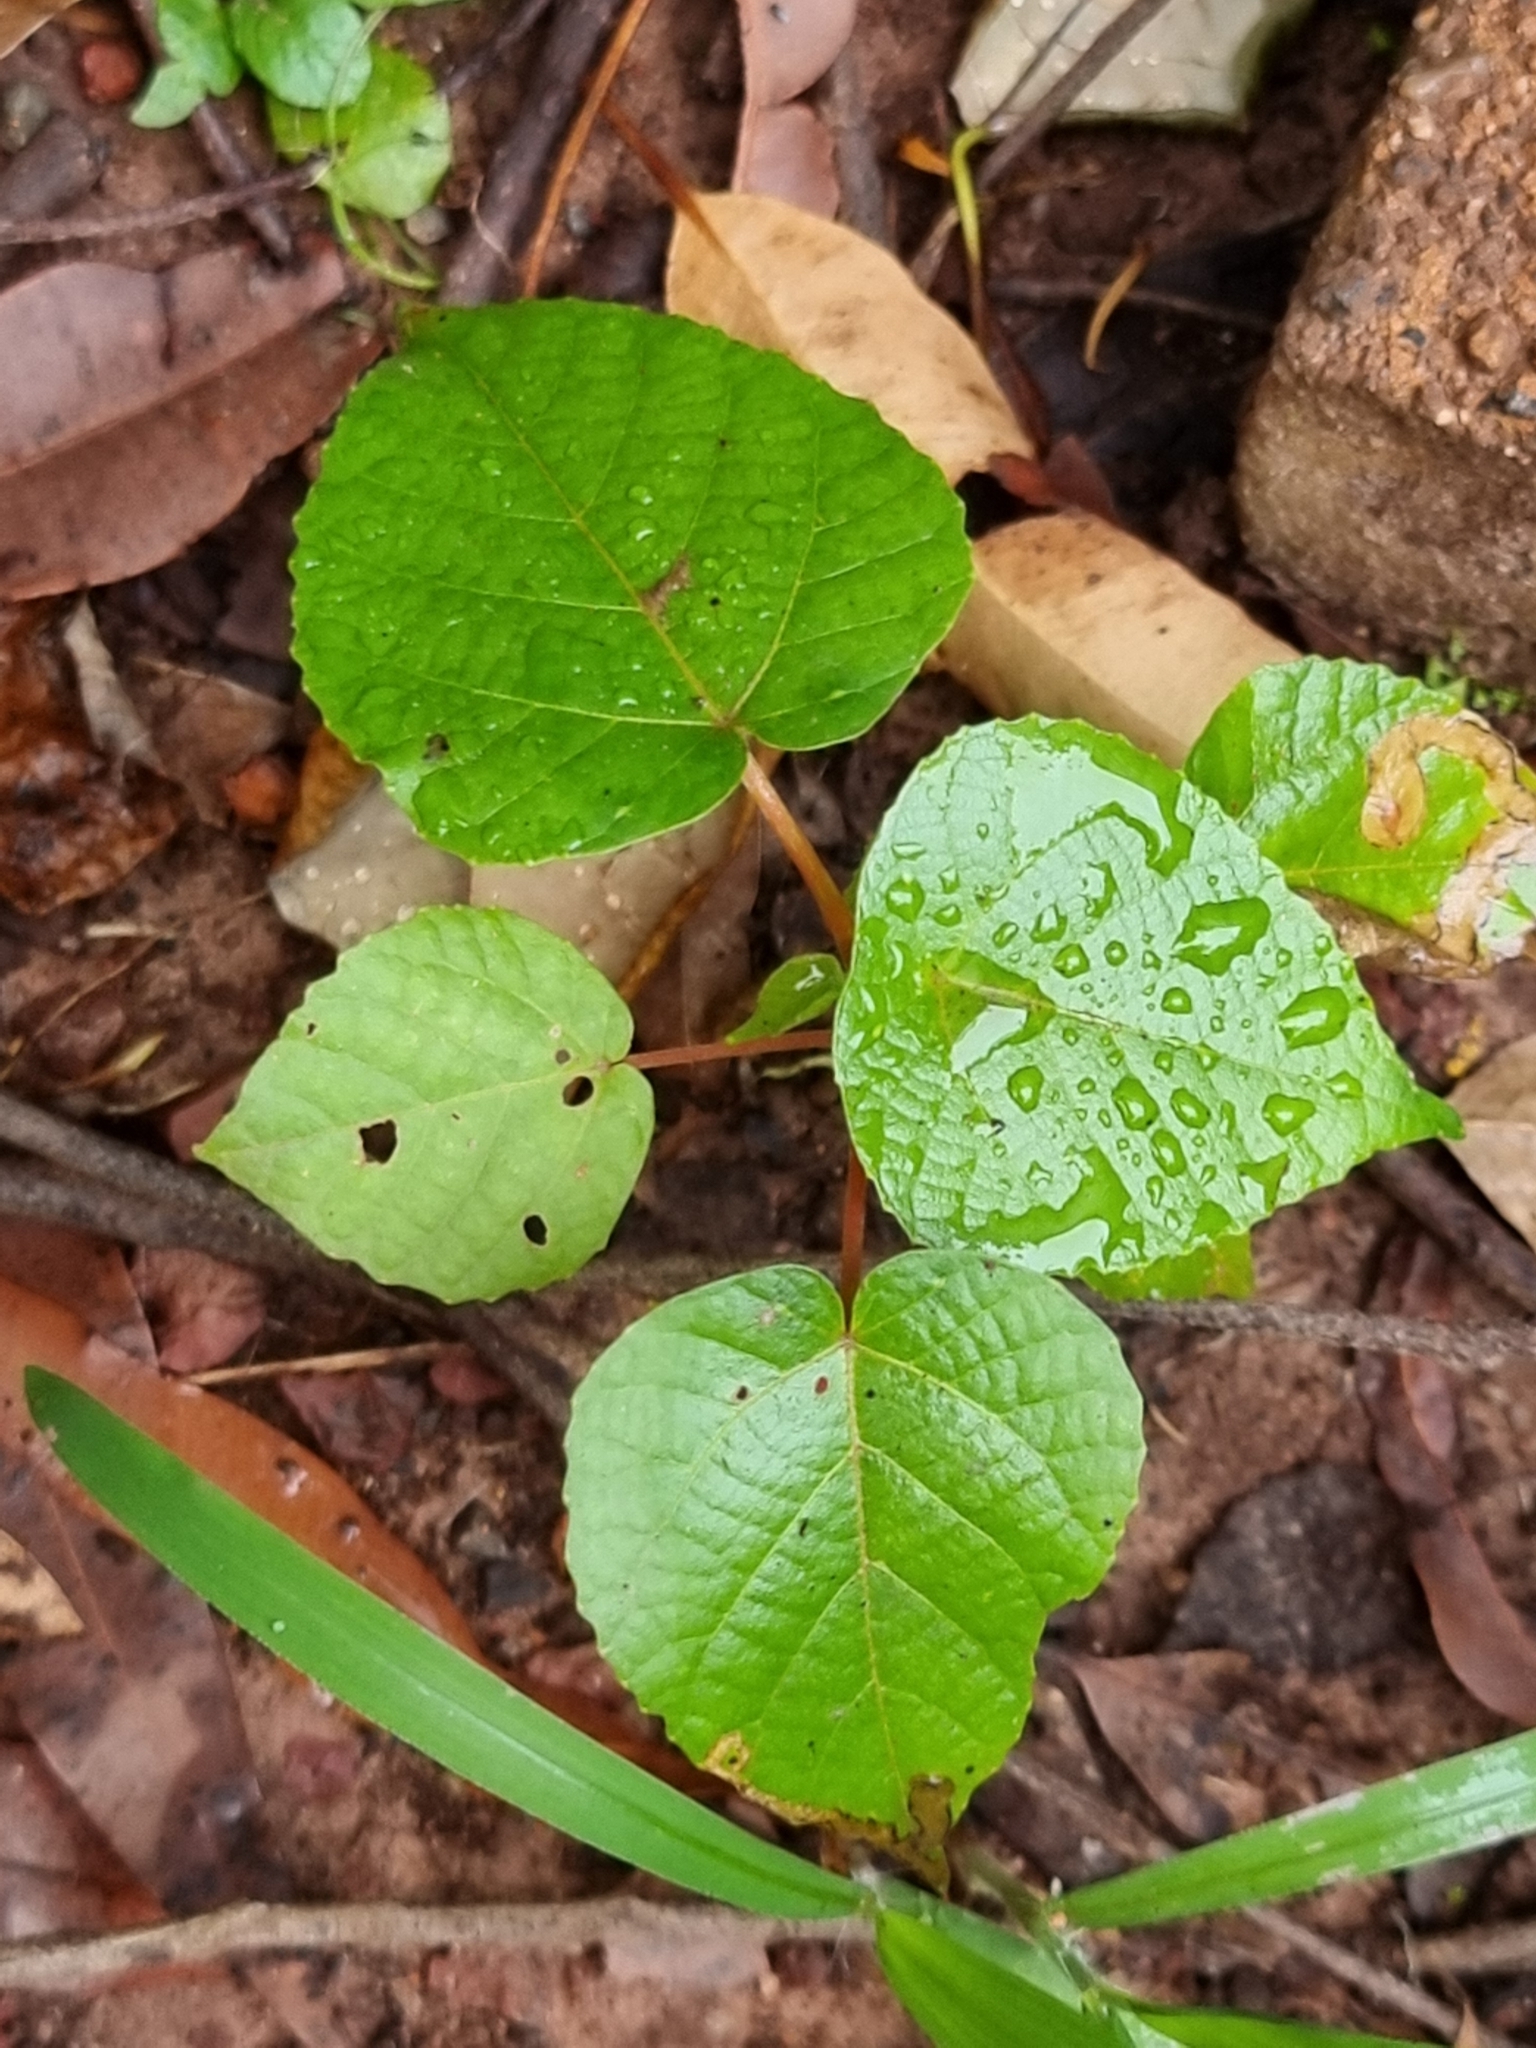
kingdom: Plantae
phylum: Tracheophyta
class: Magnoliopsida
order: Malpighiales
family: Euphorbiaceae
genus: Macaranga
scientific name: Macaranga tanarius
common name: Parasol leaf tree
